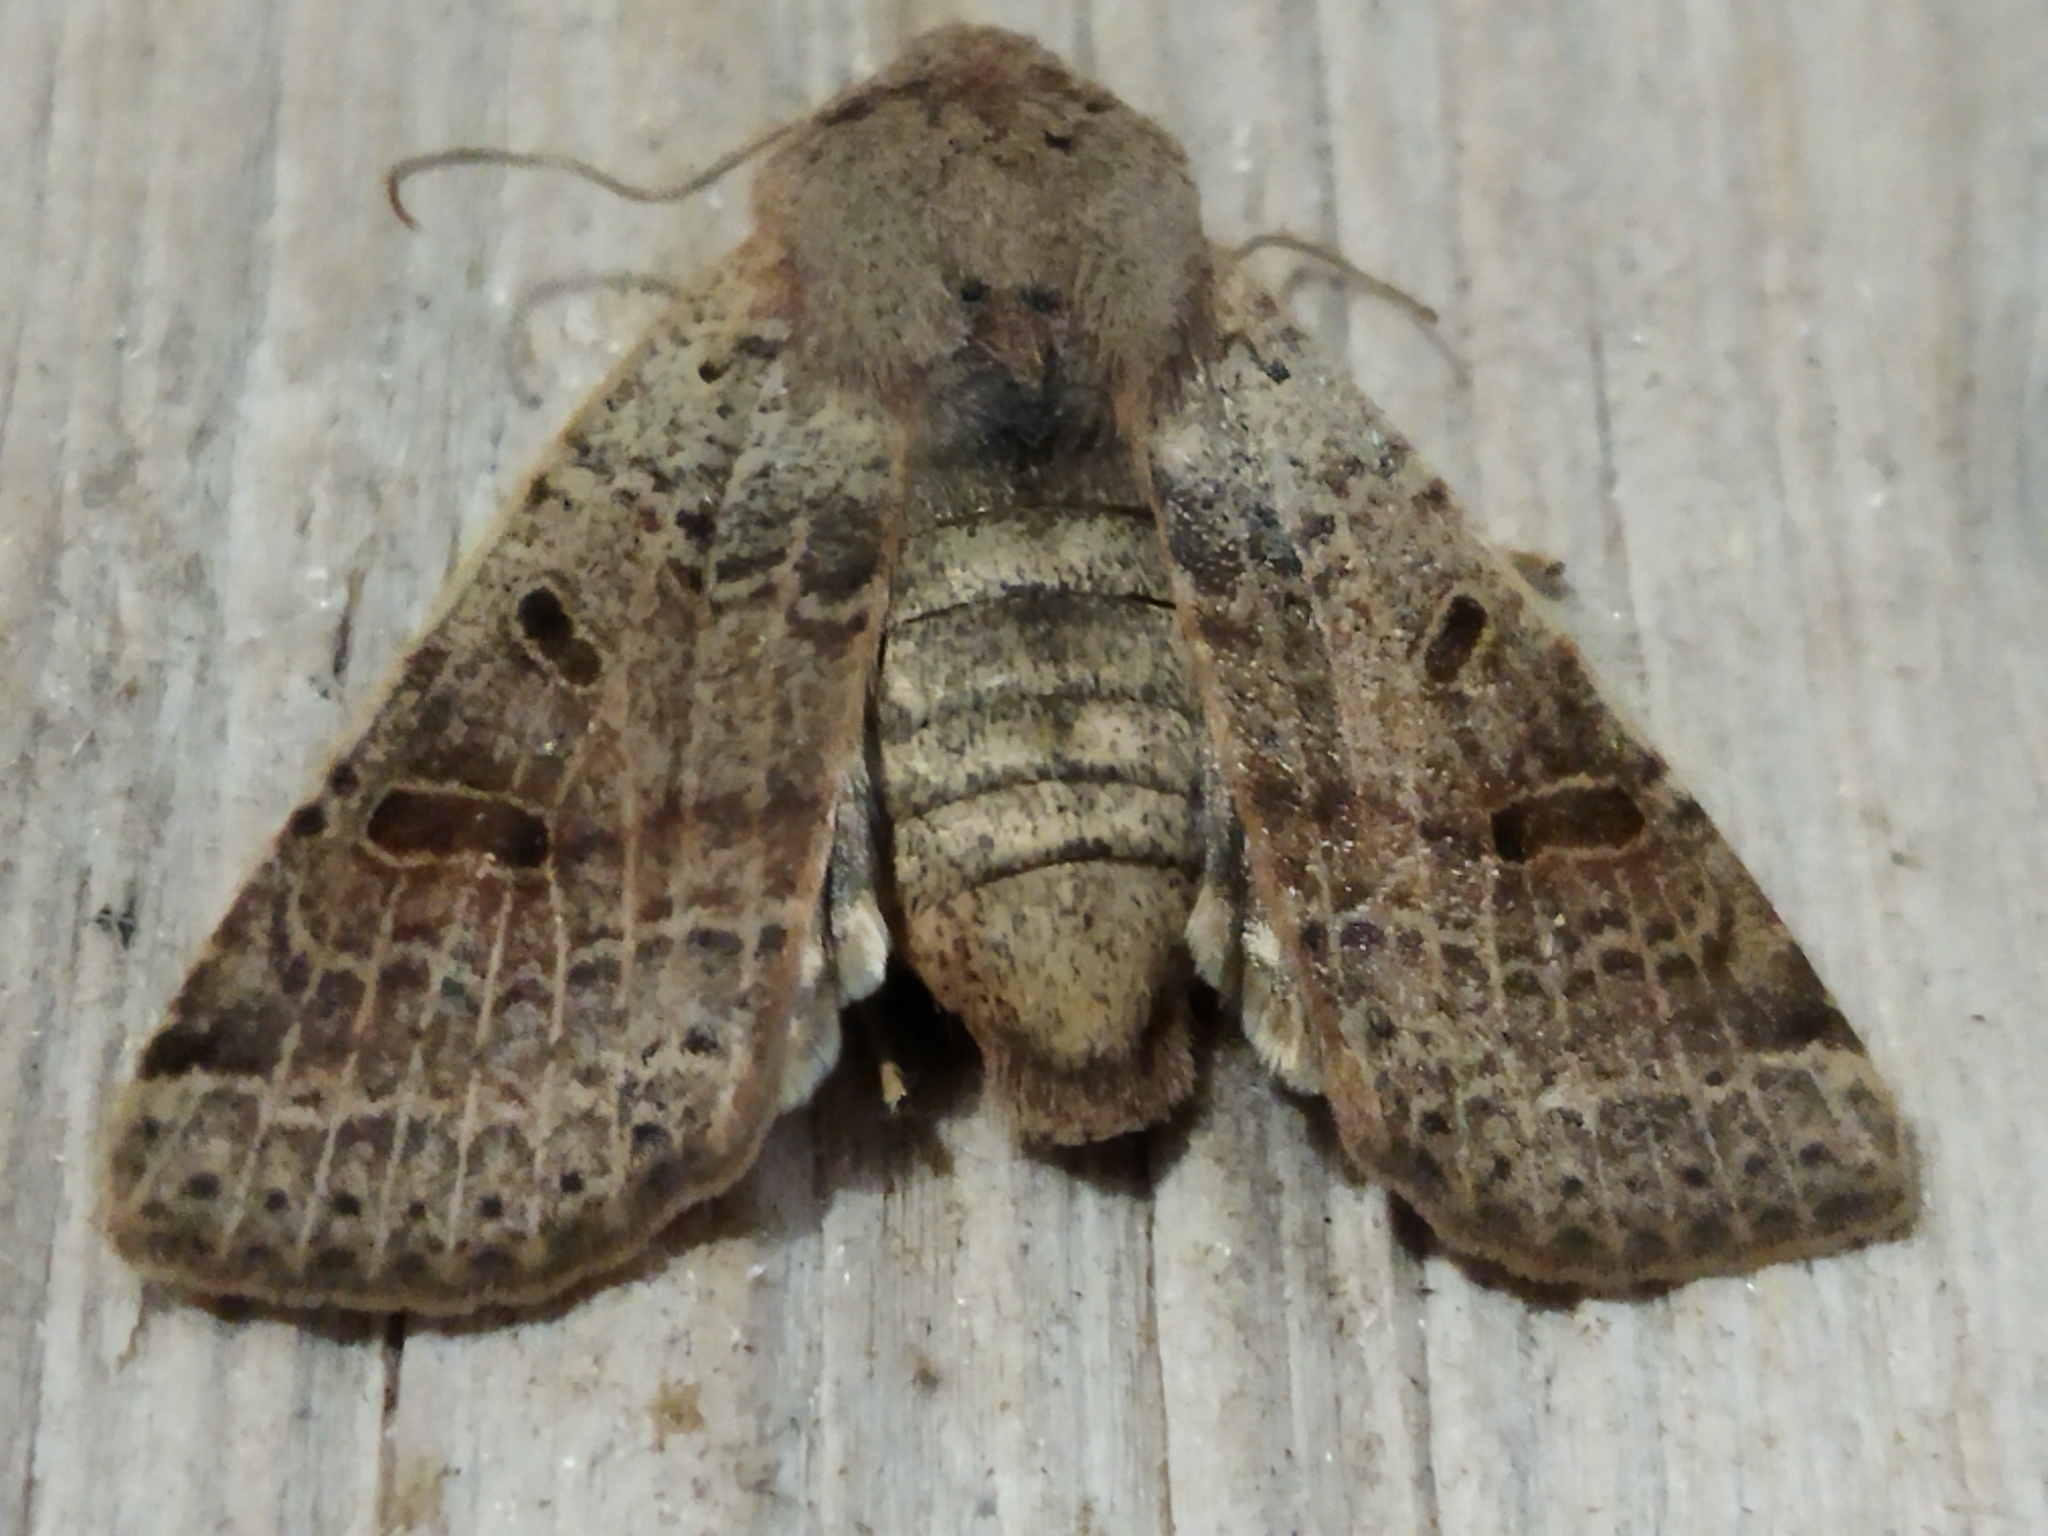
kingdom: Animalia
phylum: Arthropoda
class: Insecta
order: Lepidoptera
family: Noctuidae
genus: Agrochola
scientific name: Agrochola lychnidis
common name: Beaded chestnut
